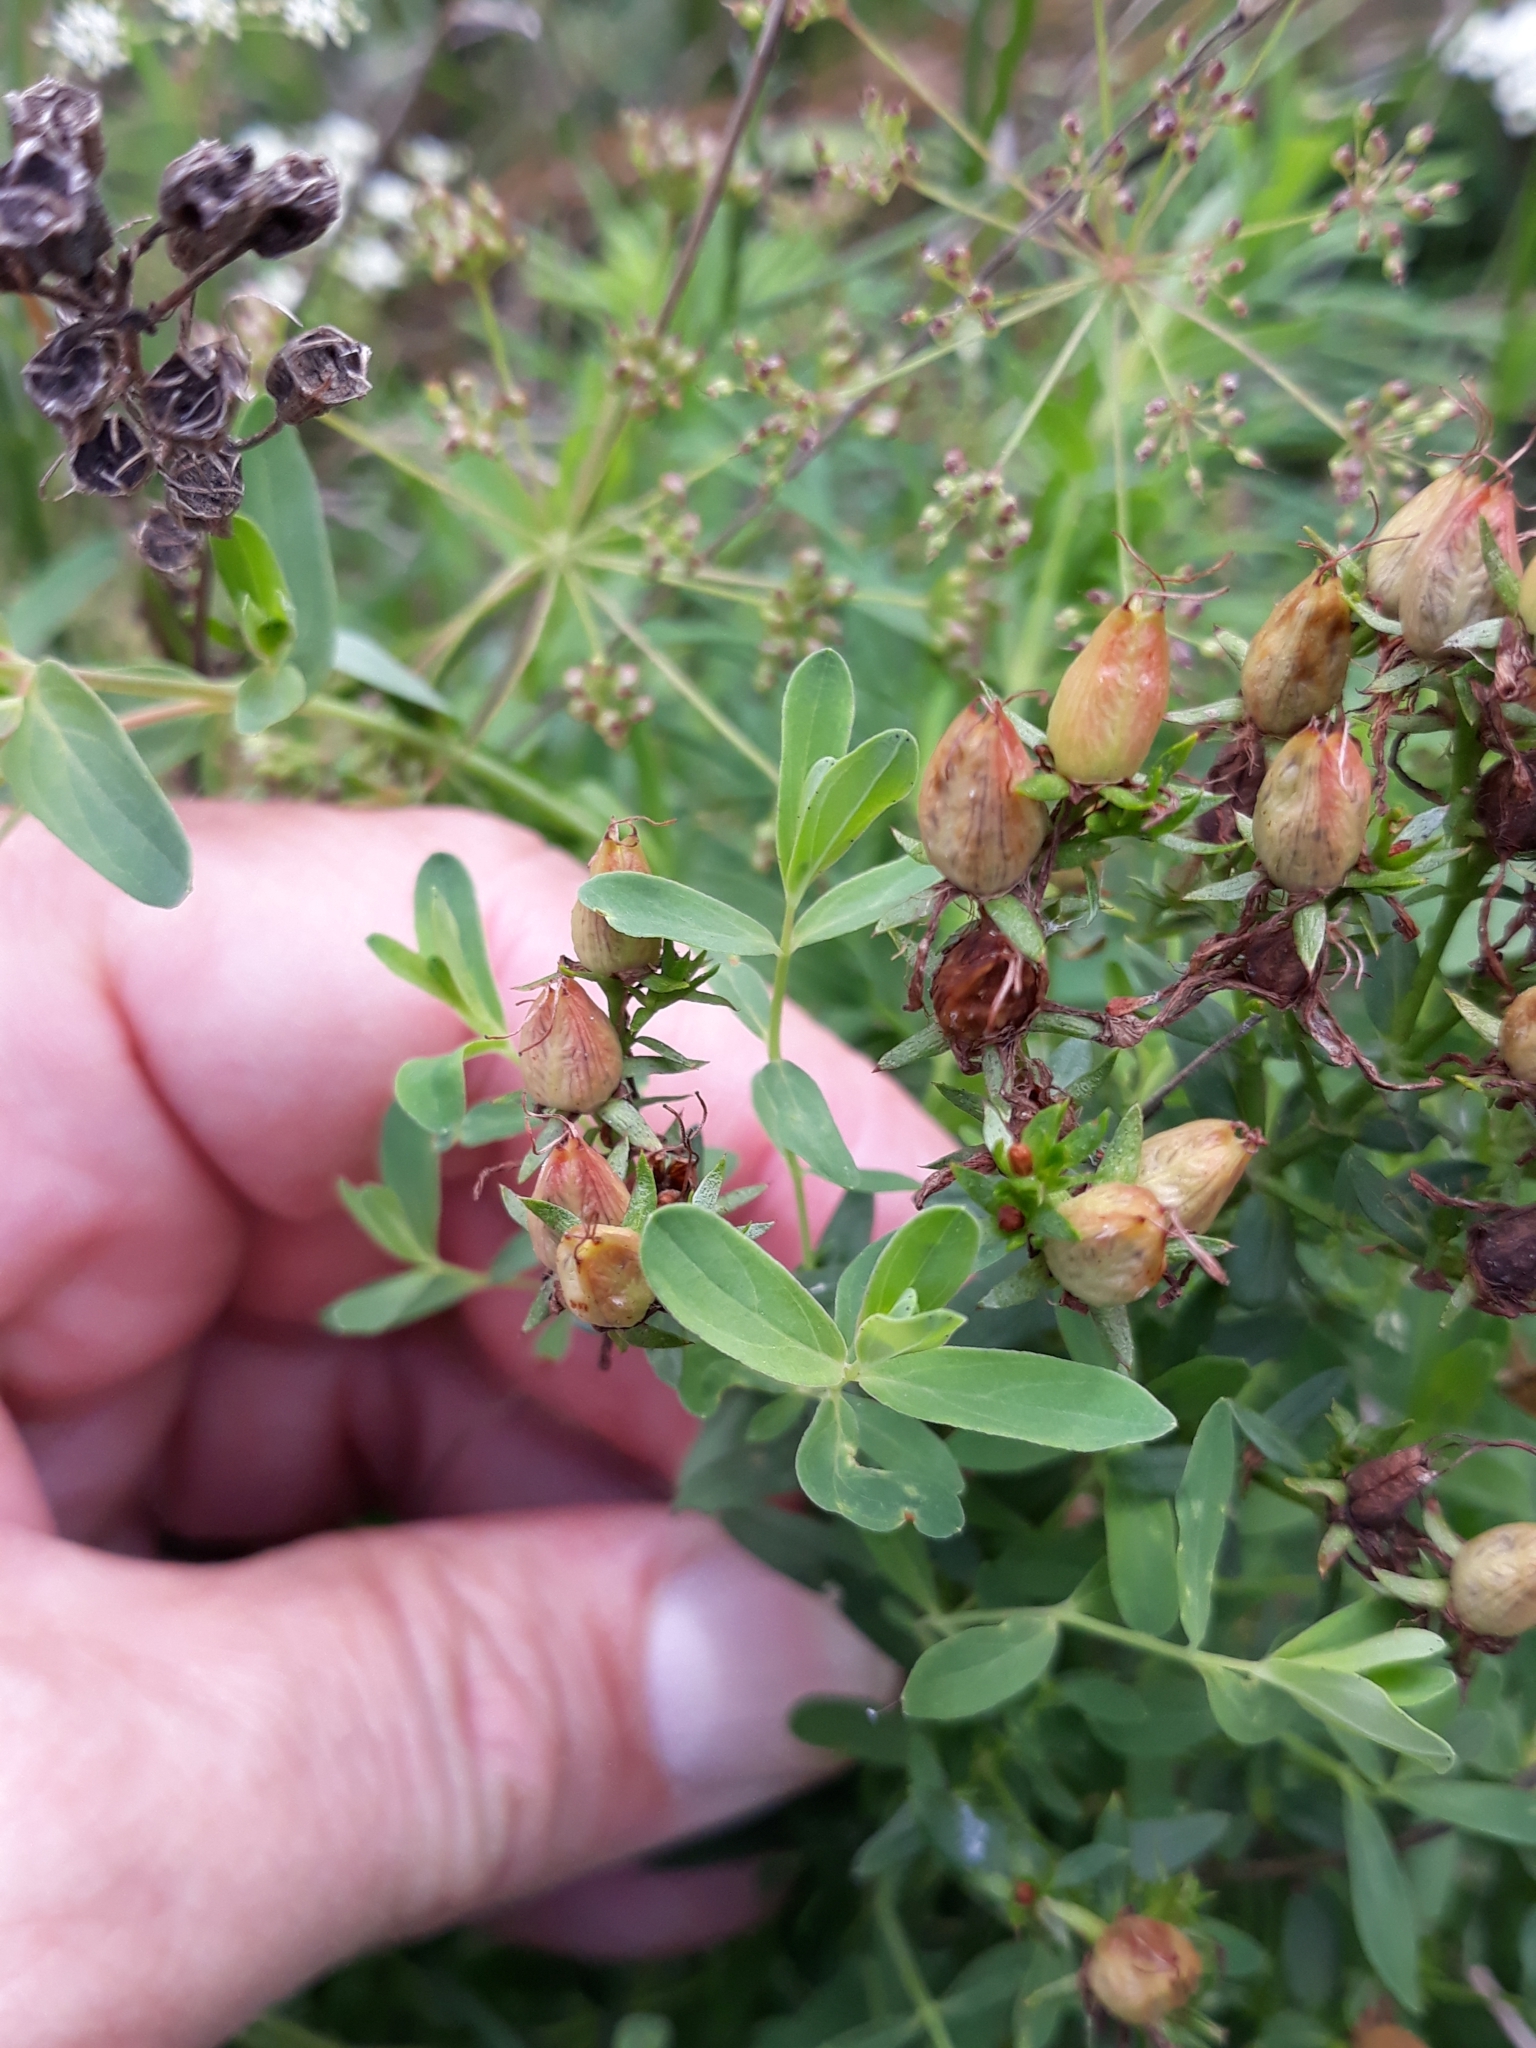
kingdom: Plantae
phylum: Tracheophyta
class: Magnoliopsida
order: Malpighiales
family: Hypericaceae
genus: Hypericum
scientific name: Hypericum perforatum
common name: Common st. johnswort
